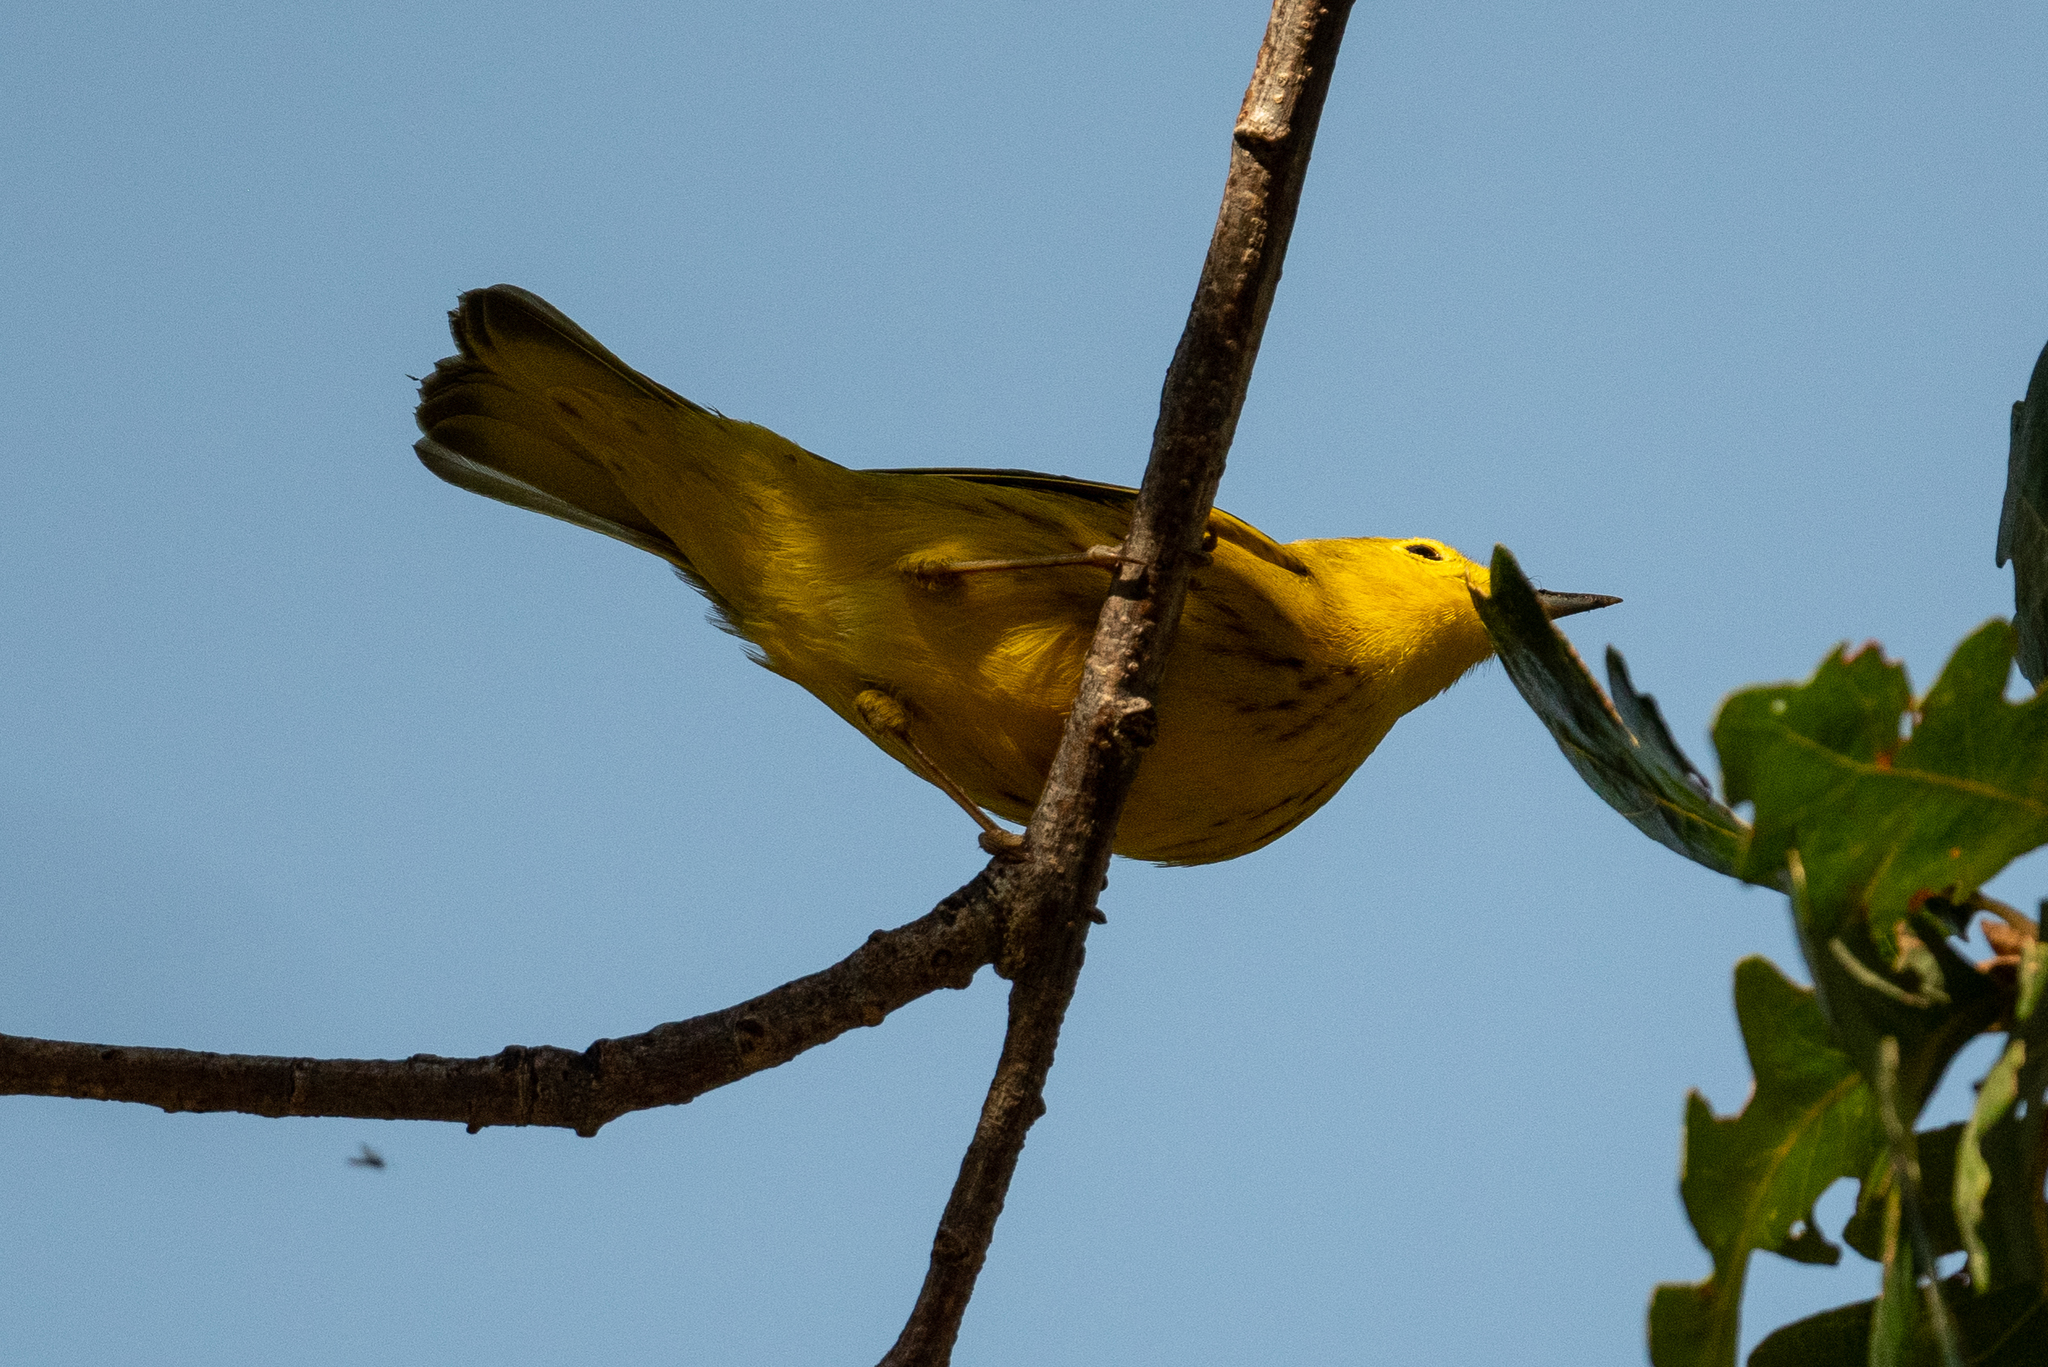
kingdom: Animalia
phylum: Chordata
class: Aves
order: Passeriformes
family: Parulidae
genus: Setophaga
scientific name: Setophaga petechia
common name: Yellow warbler
